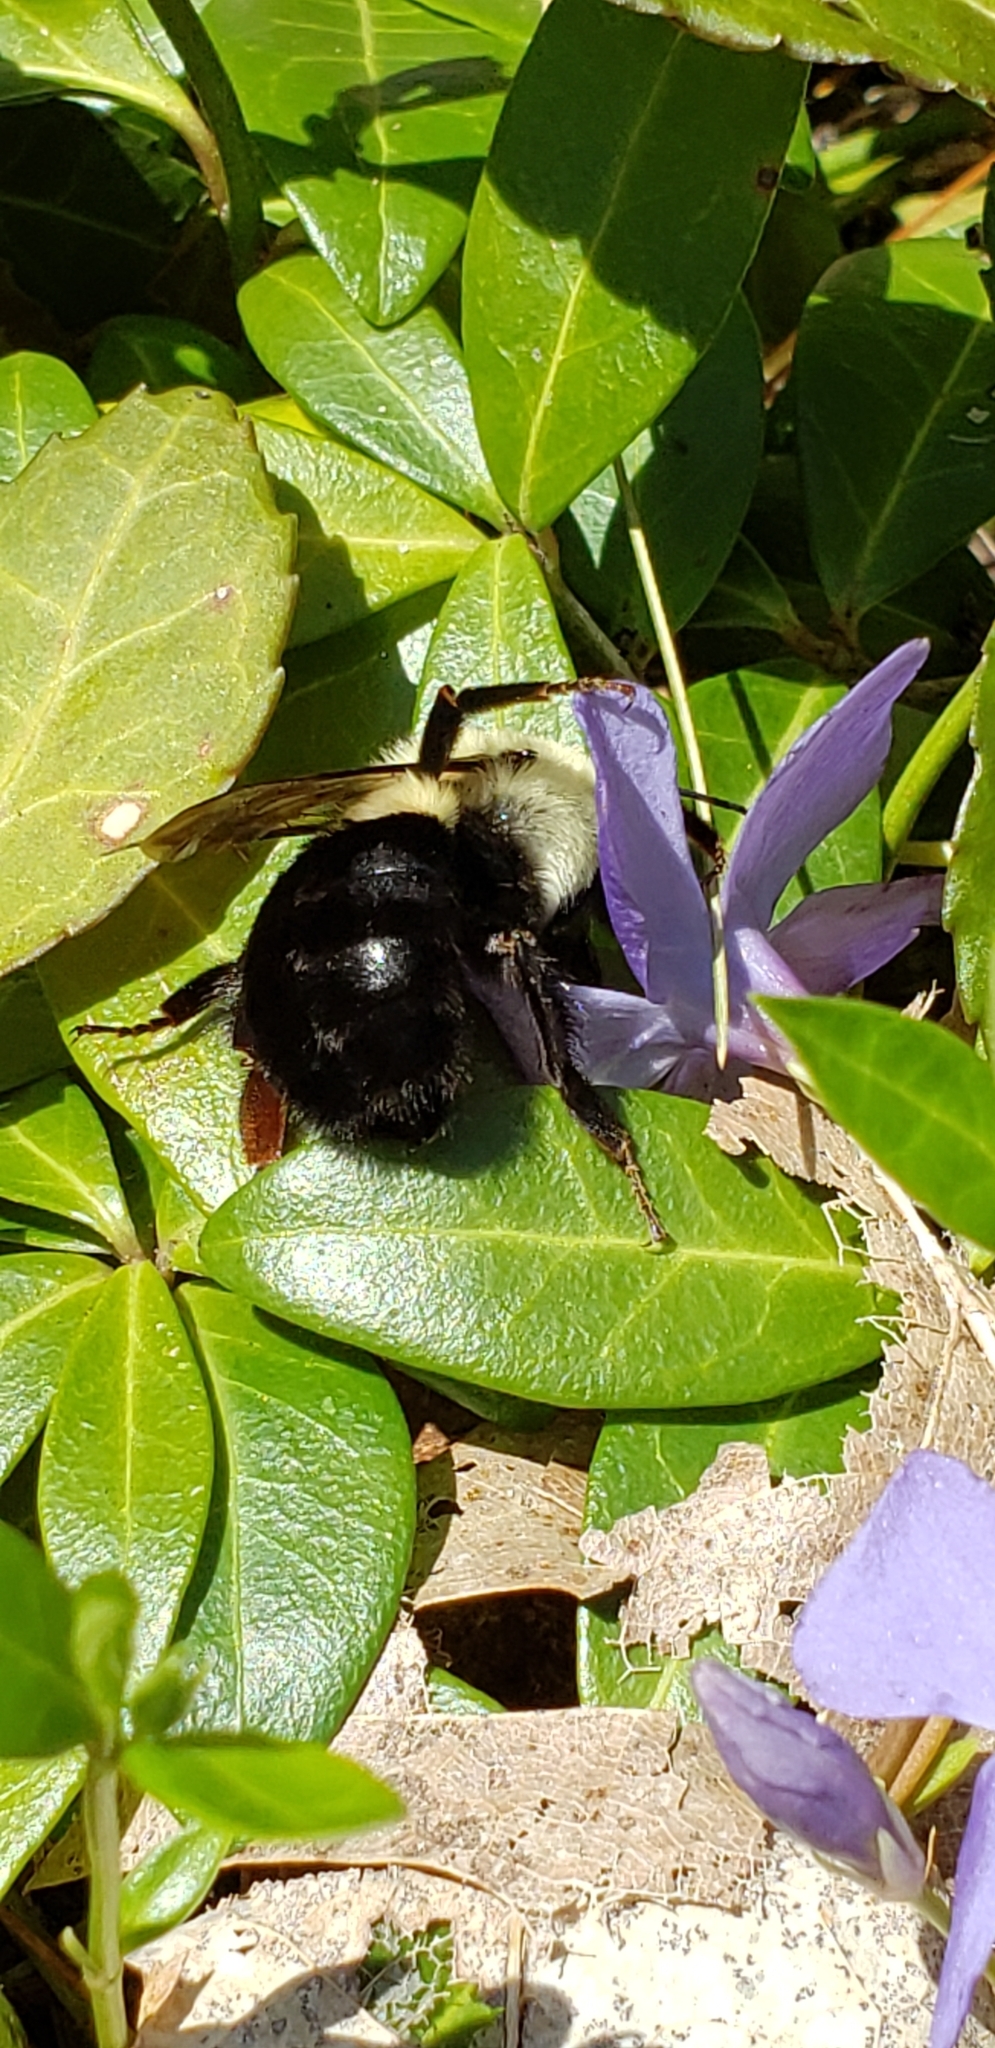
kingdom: Animalia
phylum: Arthropoda
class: Insecta
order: Hymenoptera
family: Apidae
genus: Bombus
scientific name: Bombus impatiens
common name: Common eastern bumble bee
